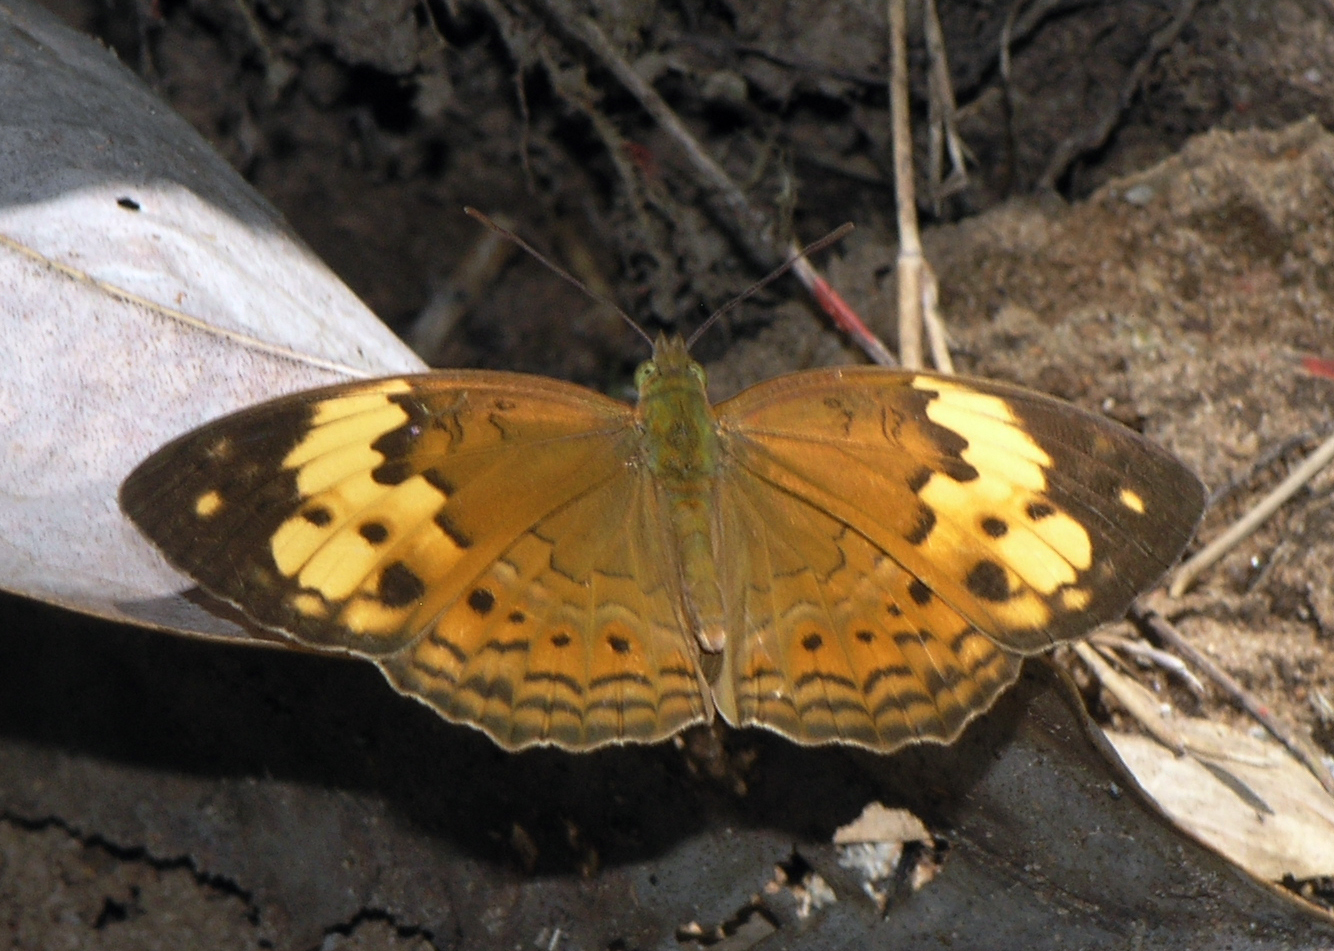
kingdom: Animalia
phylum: Arthropoda
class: Insecta
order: Lepidoptera
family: Nymphalidae
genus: Cupha
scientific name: Cupha erymanthis
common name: Rustic
